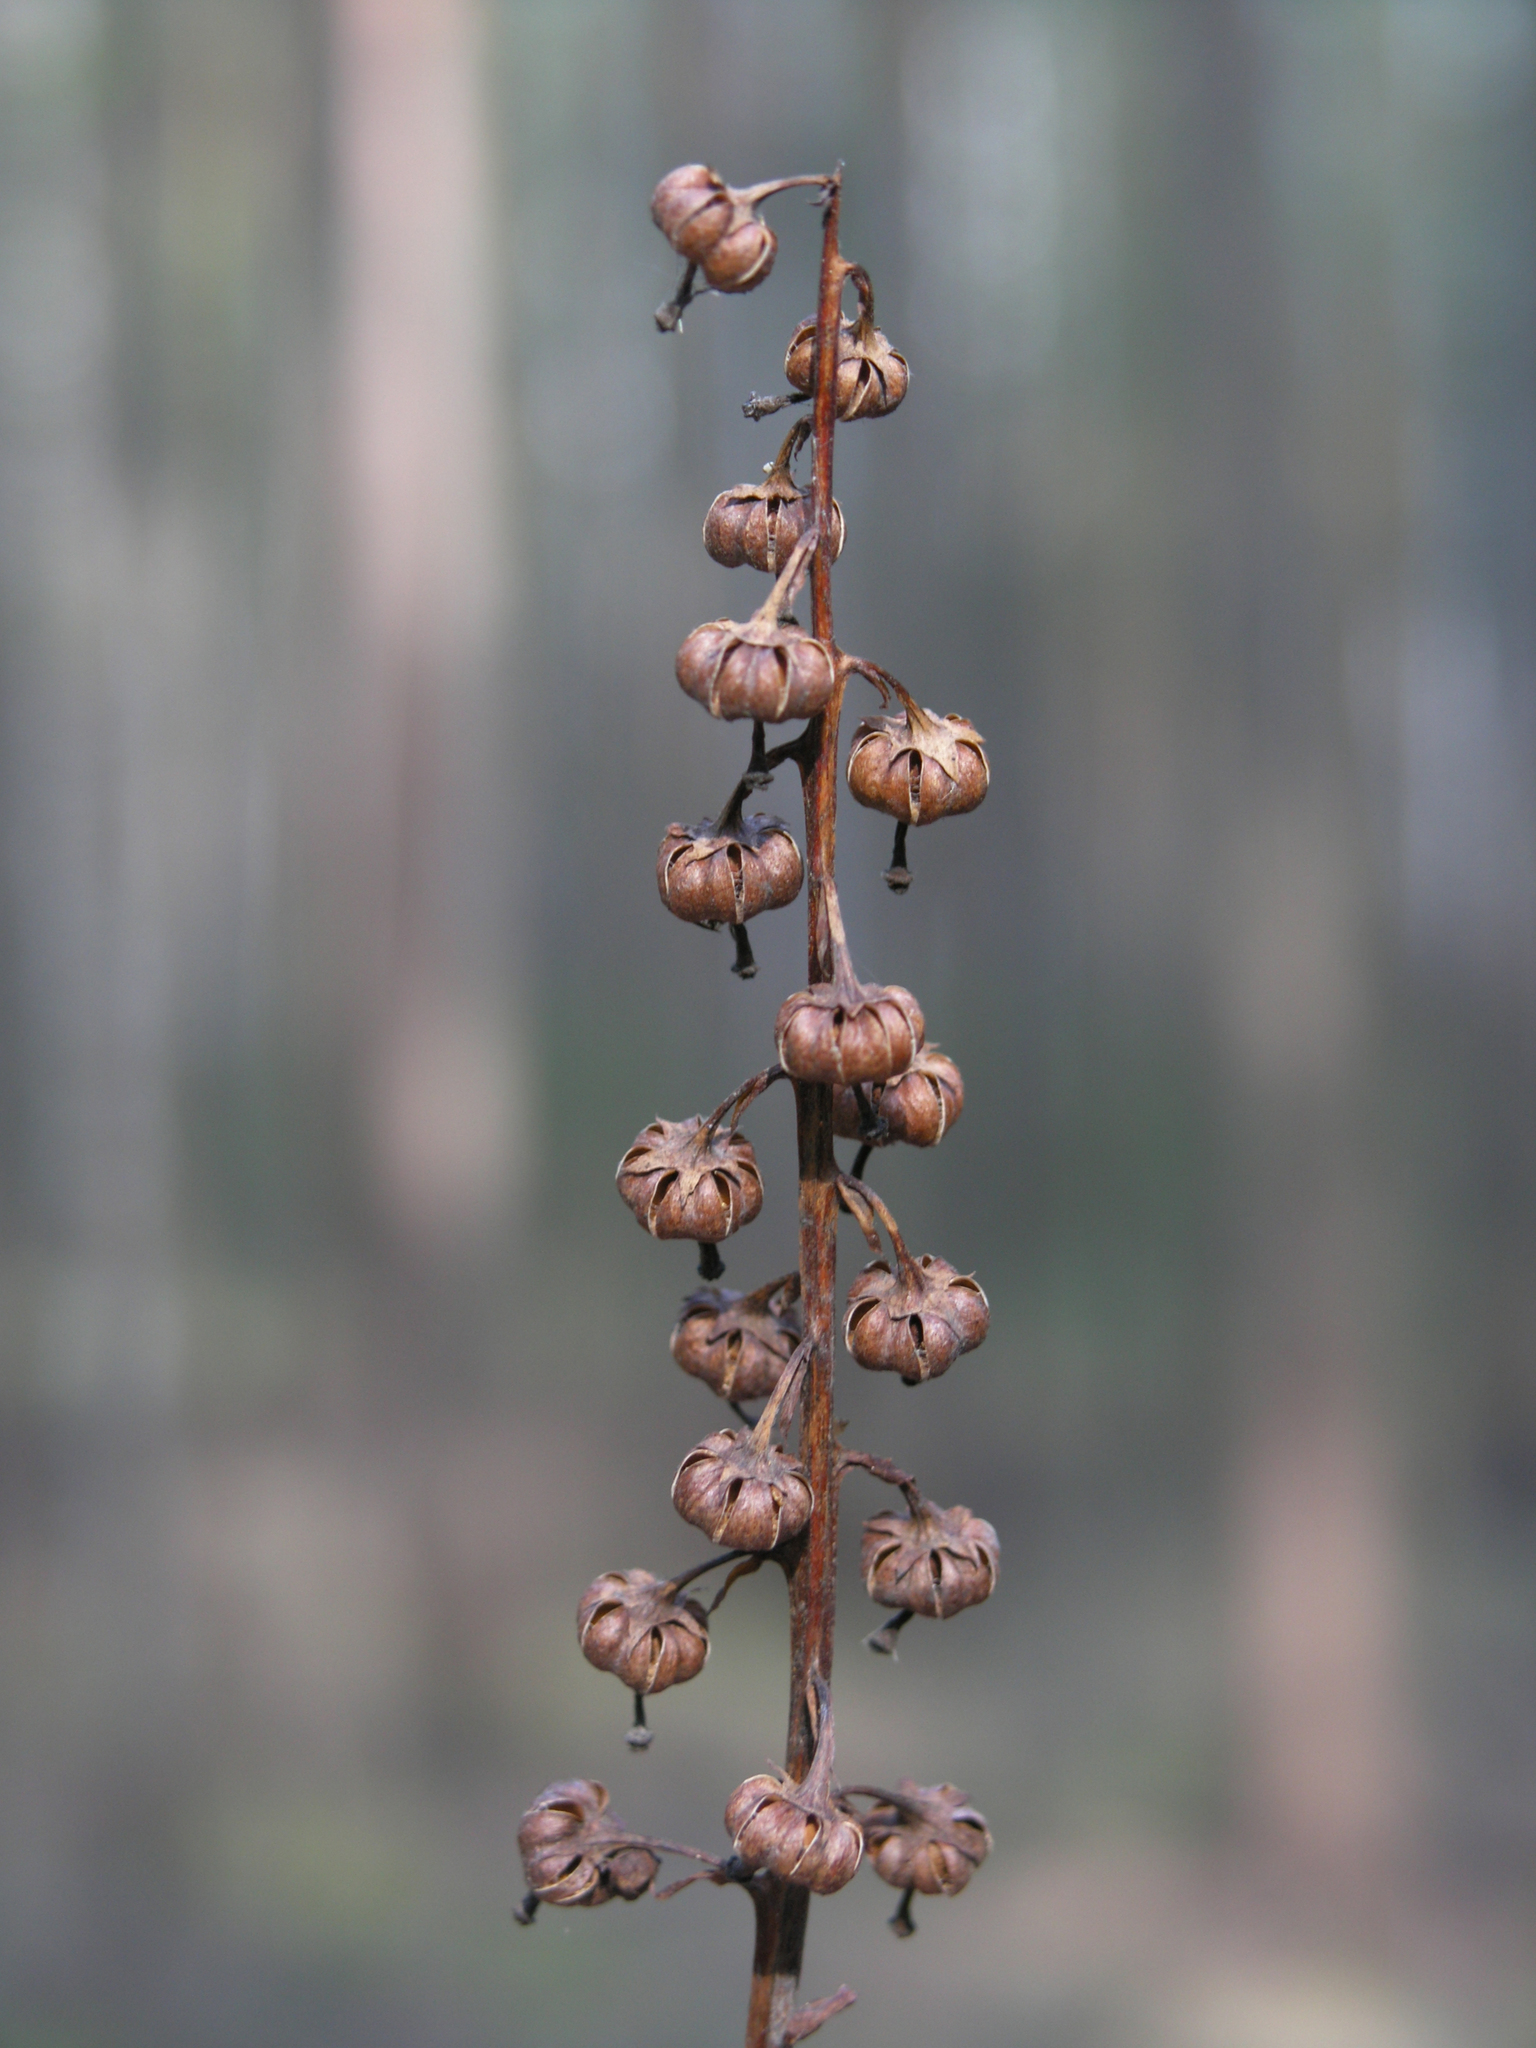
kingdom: Plantae
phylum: Tracheophyta
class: Magnoliopsida
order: Ericales
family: Ericaceae
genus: Pyrola
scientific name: Pyrola media
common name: Intermediate wintergreen
